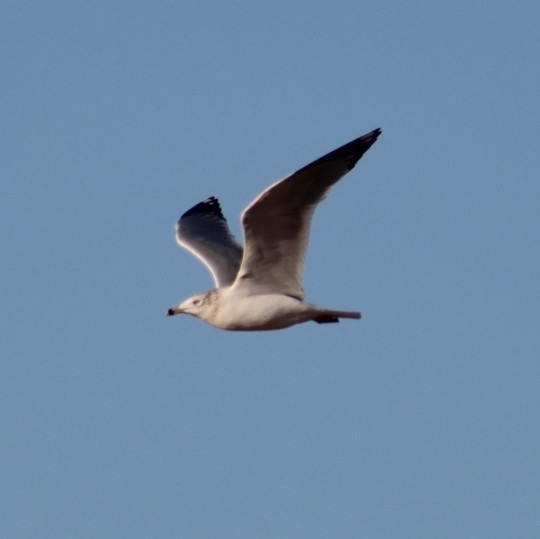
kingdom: Animalia
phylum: Chordata
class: Aves
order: Charadriiformes
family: Laridae
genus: Larus
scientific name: Larus delawarensis
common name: Ring-billed gull
